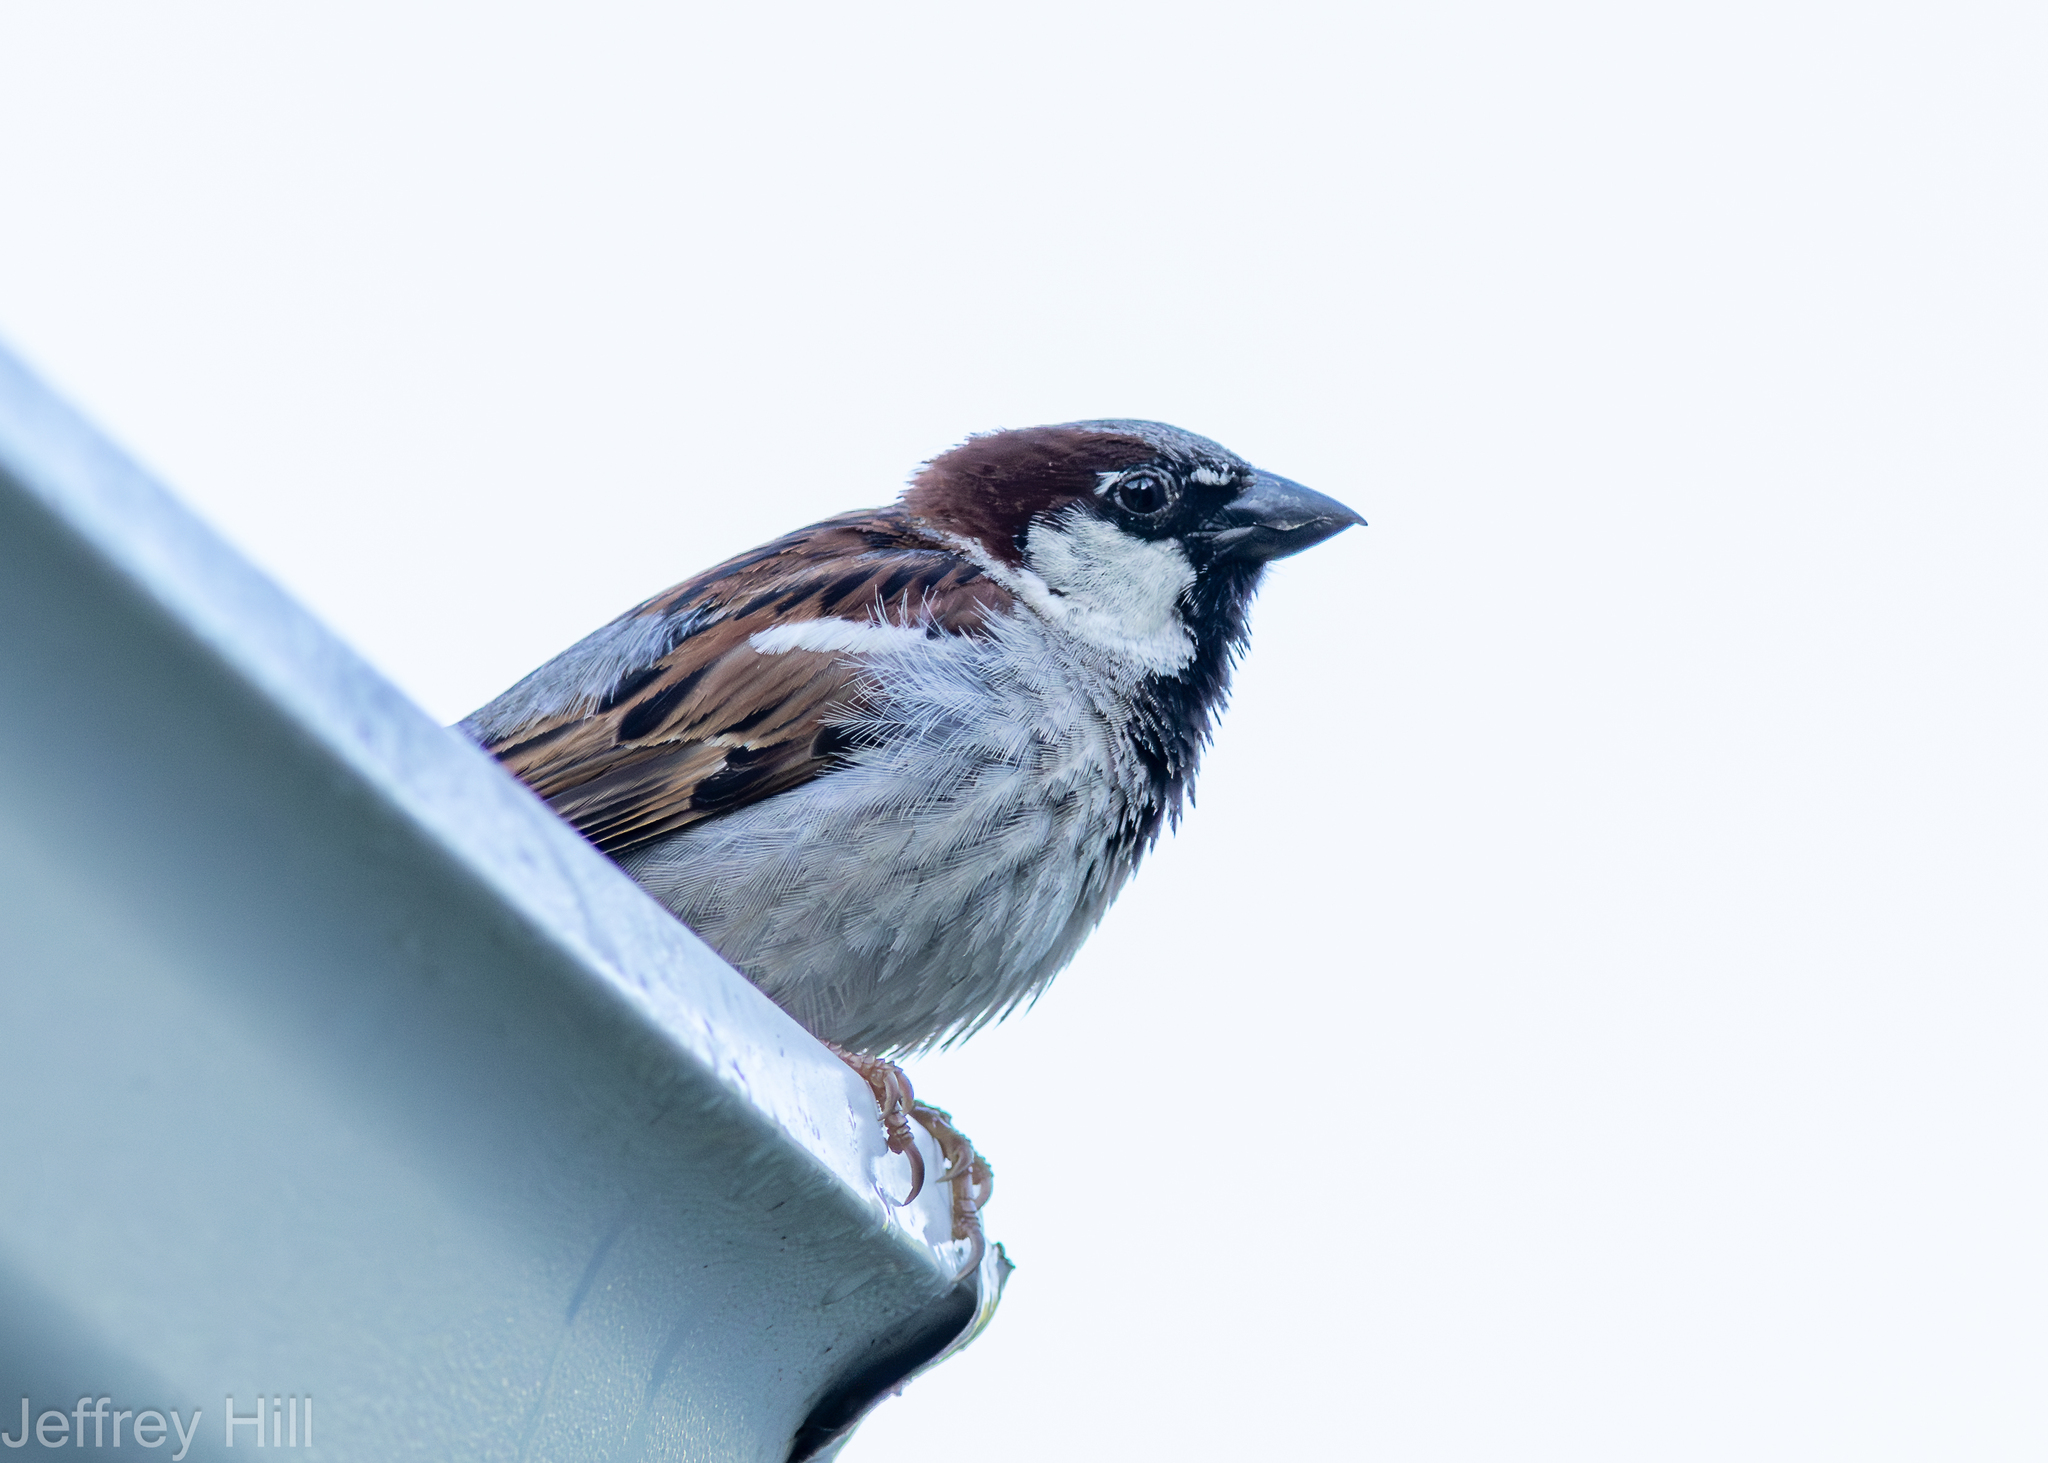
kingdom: Animalia
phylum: Chordata
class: Aves
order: Passeriformes
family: Passeridae
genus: Passer
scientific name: Passer domesticus
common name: House sparrow
